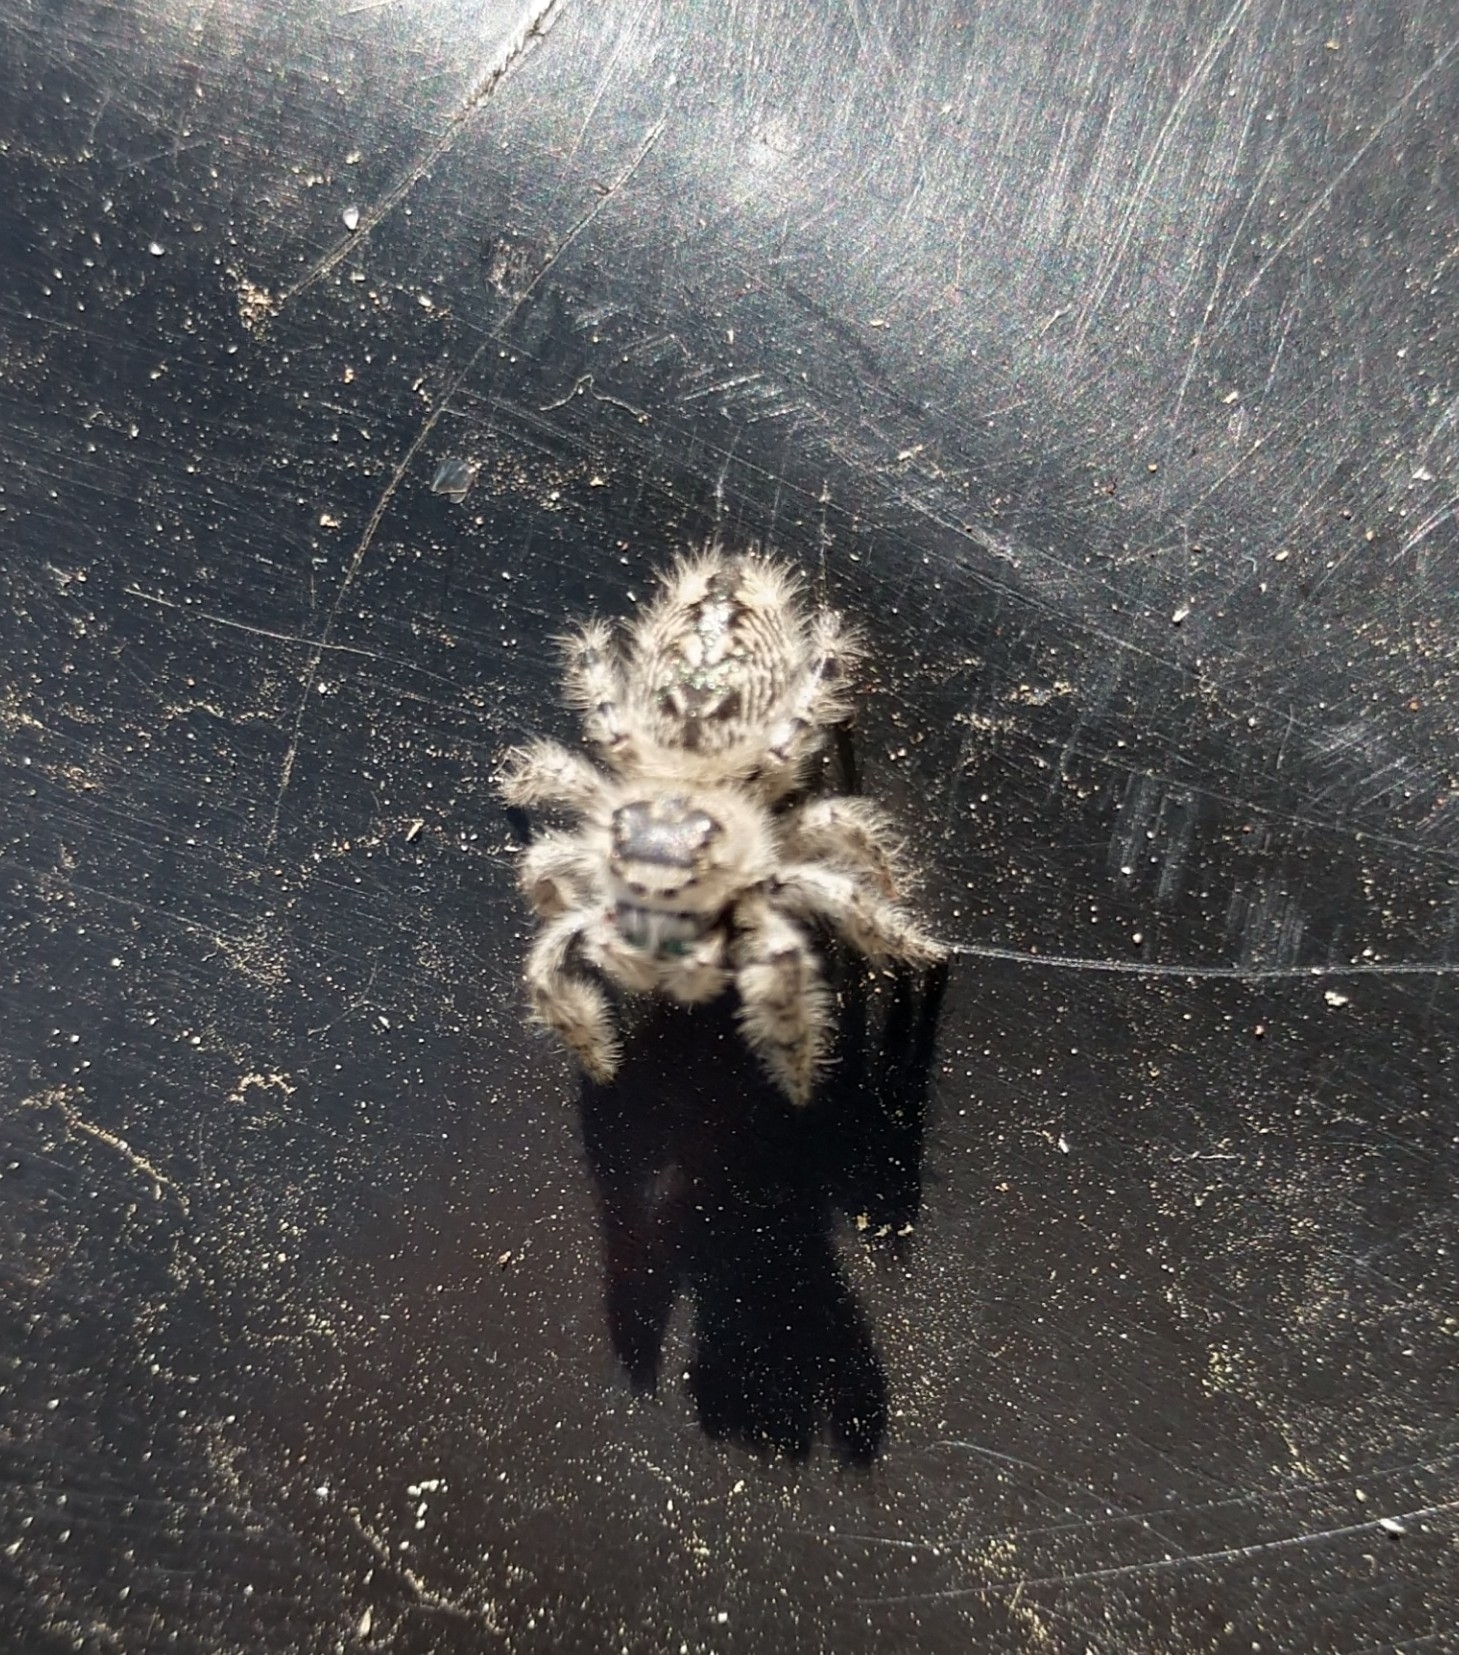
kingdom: Animalia
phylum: Arthropoda
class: Arachnida
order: Araneae
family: Salticidae
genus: Phidippus
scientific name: Phidippus otiosus
